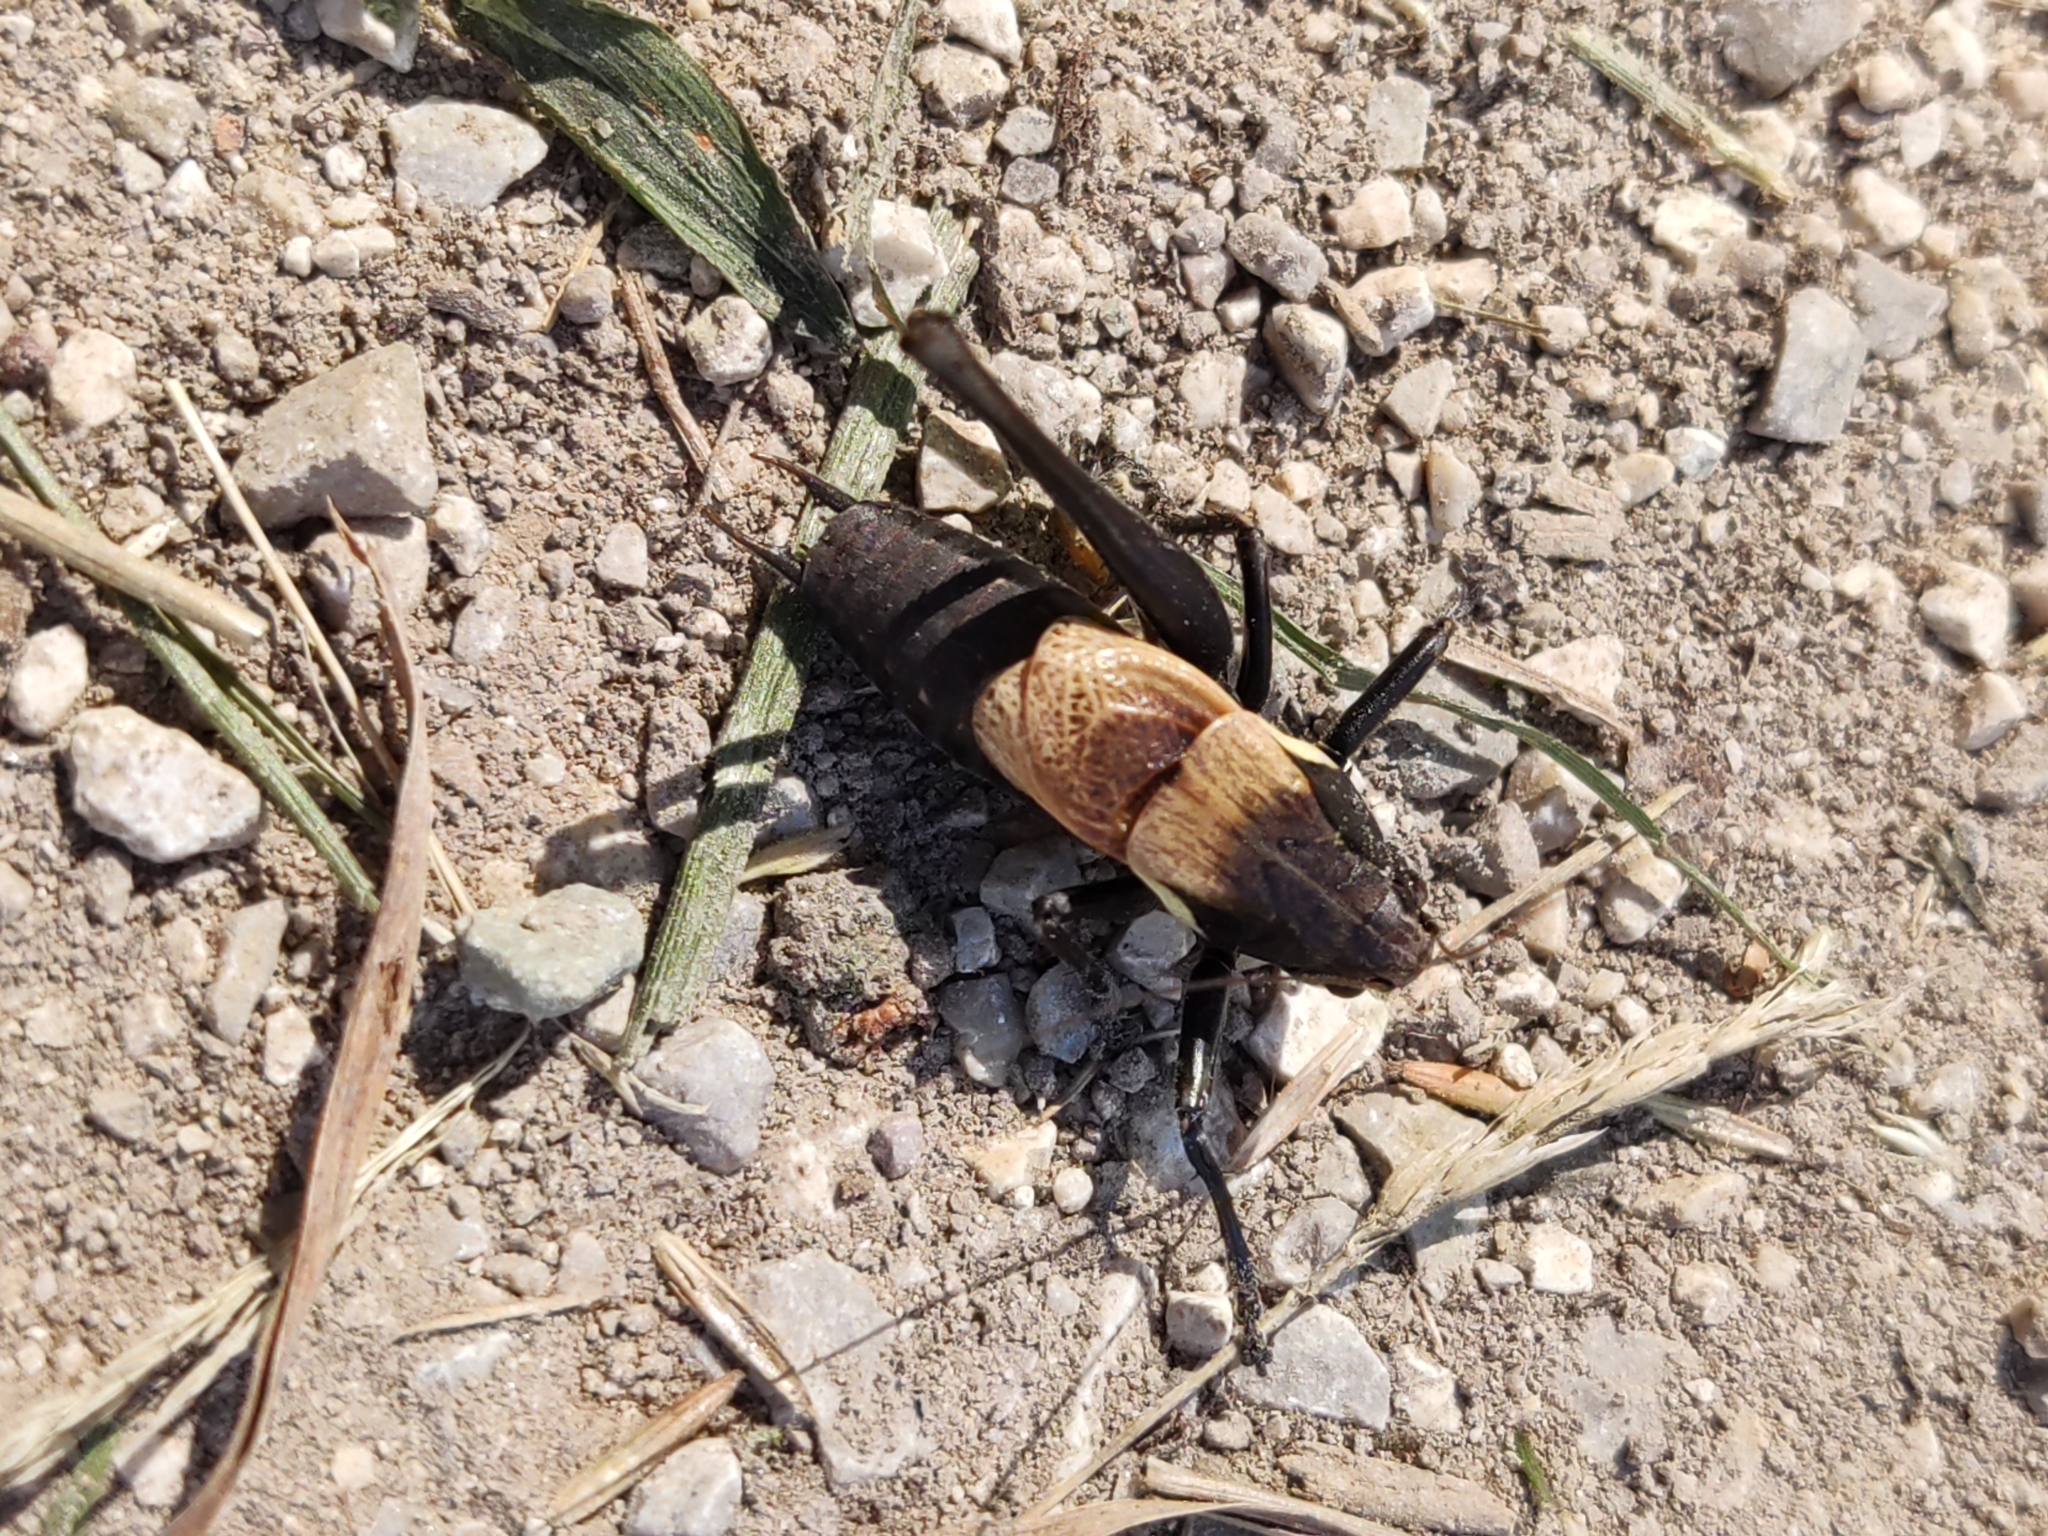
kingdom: Animalia
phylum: Arthropoda
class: Insecta
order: Orthoptera
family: Tettigoniidae
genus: Pholidoptera
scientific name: Pholidoptera aptera
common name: Alpine dark bush-cricket
